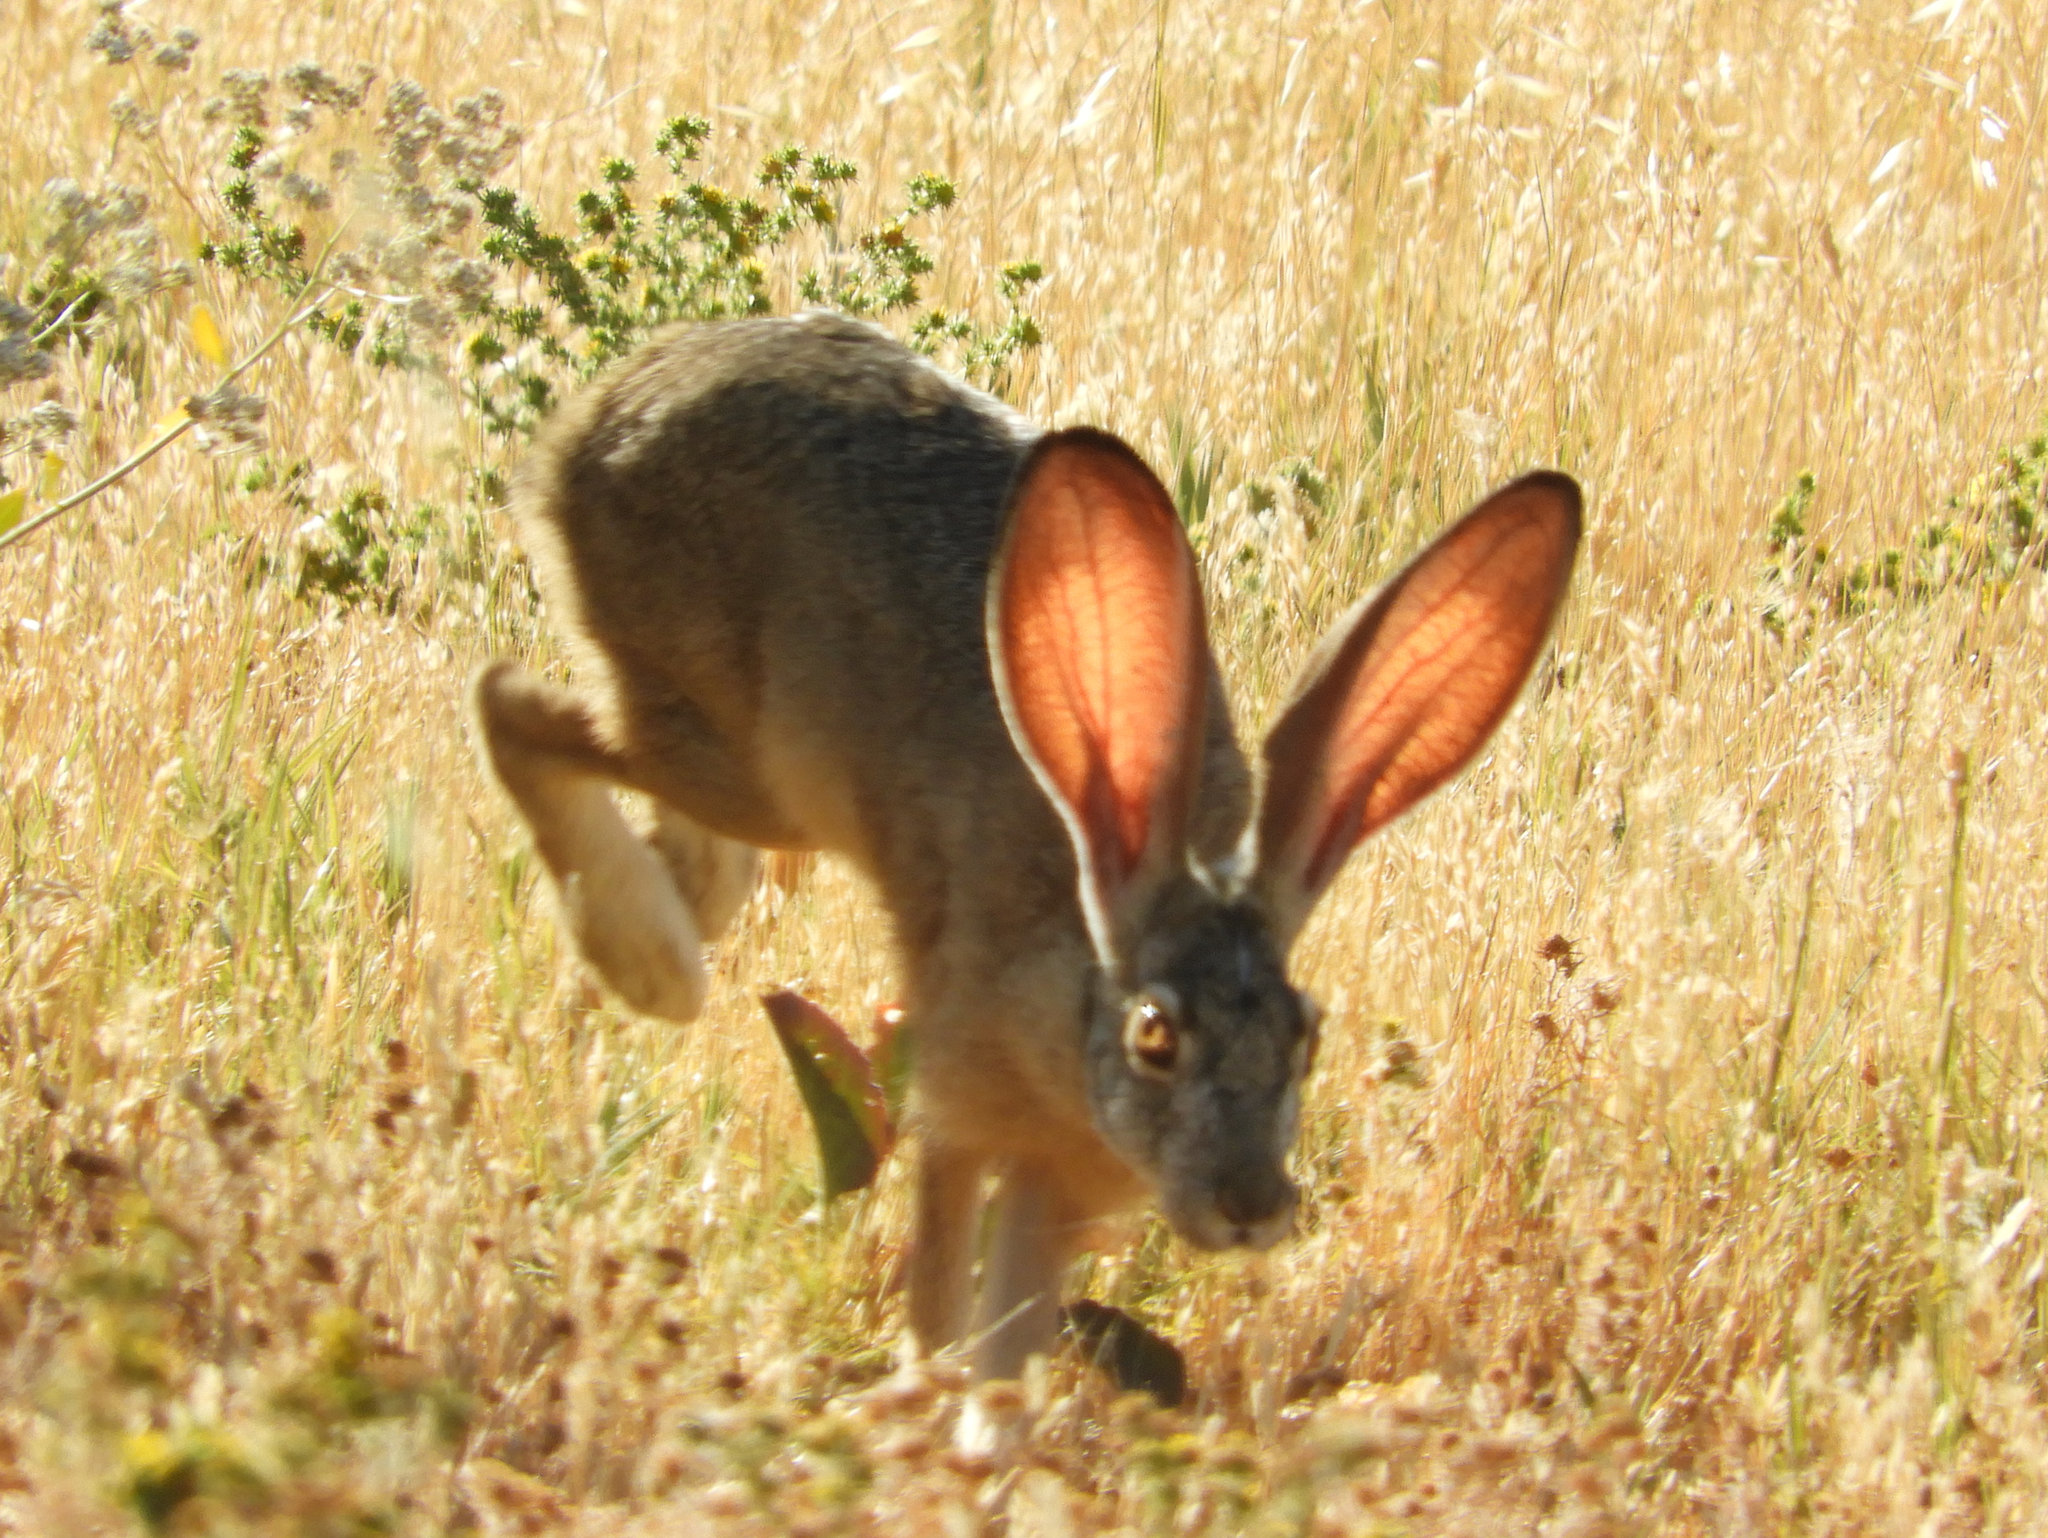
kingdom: Animalia
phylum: Chordata
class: Mammalia
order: Lagomorpha
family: Leporidae
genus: Lepus
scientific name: Lepus californicus
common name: Black-tailed jackrabbit
